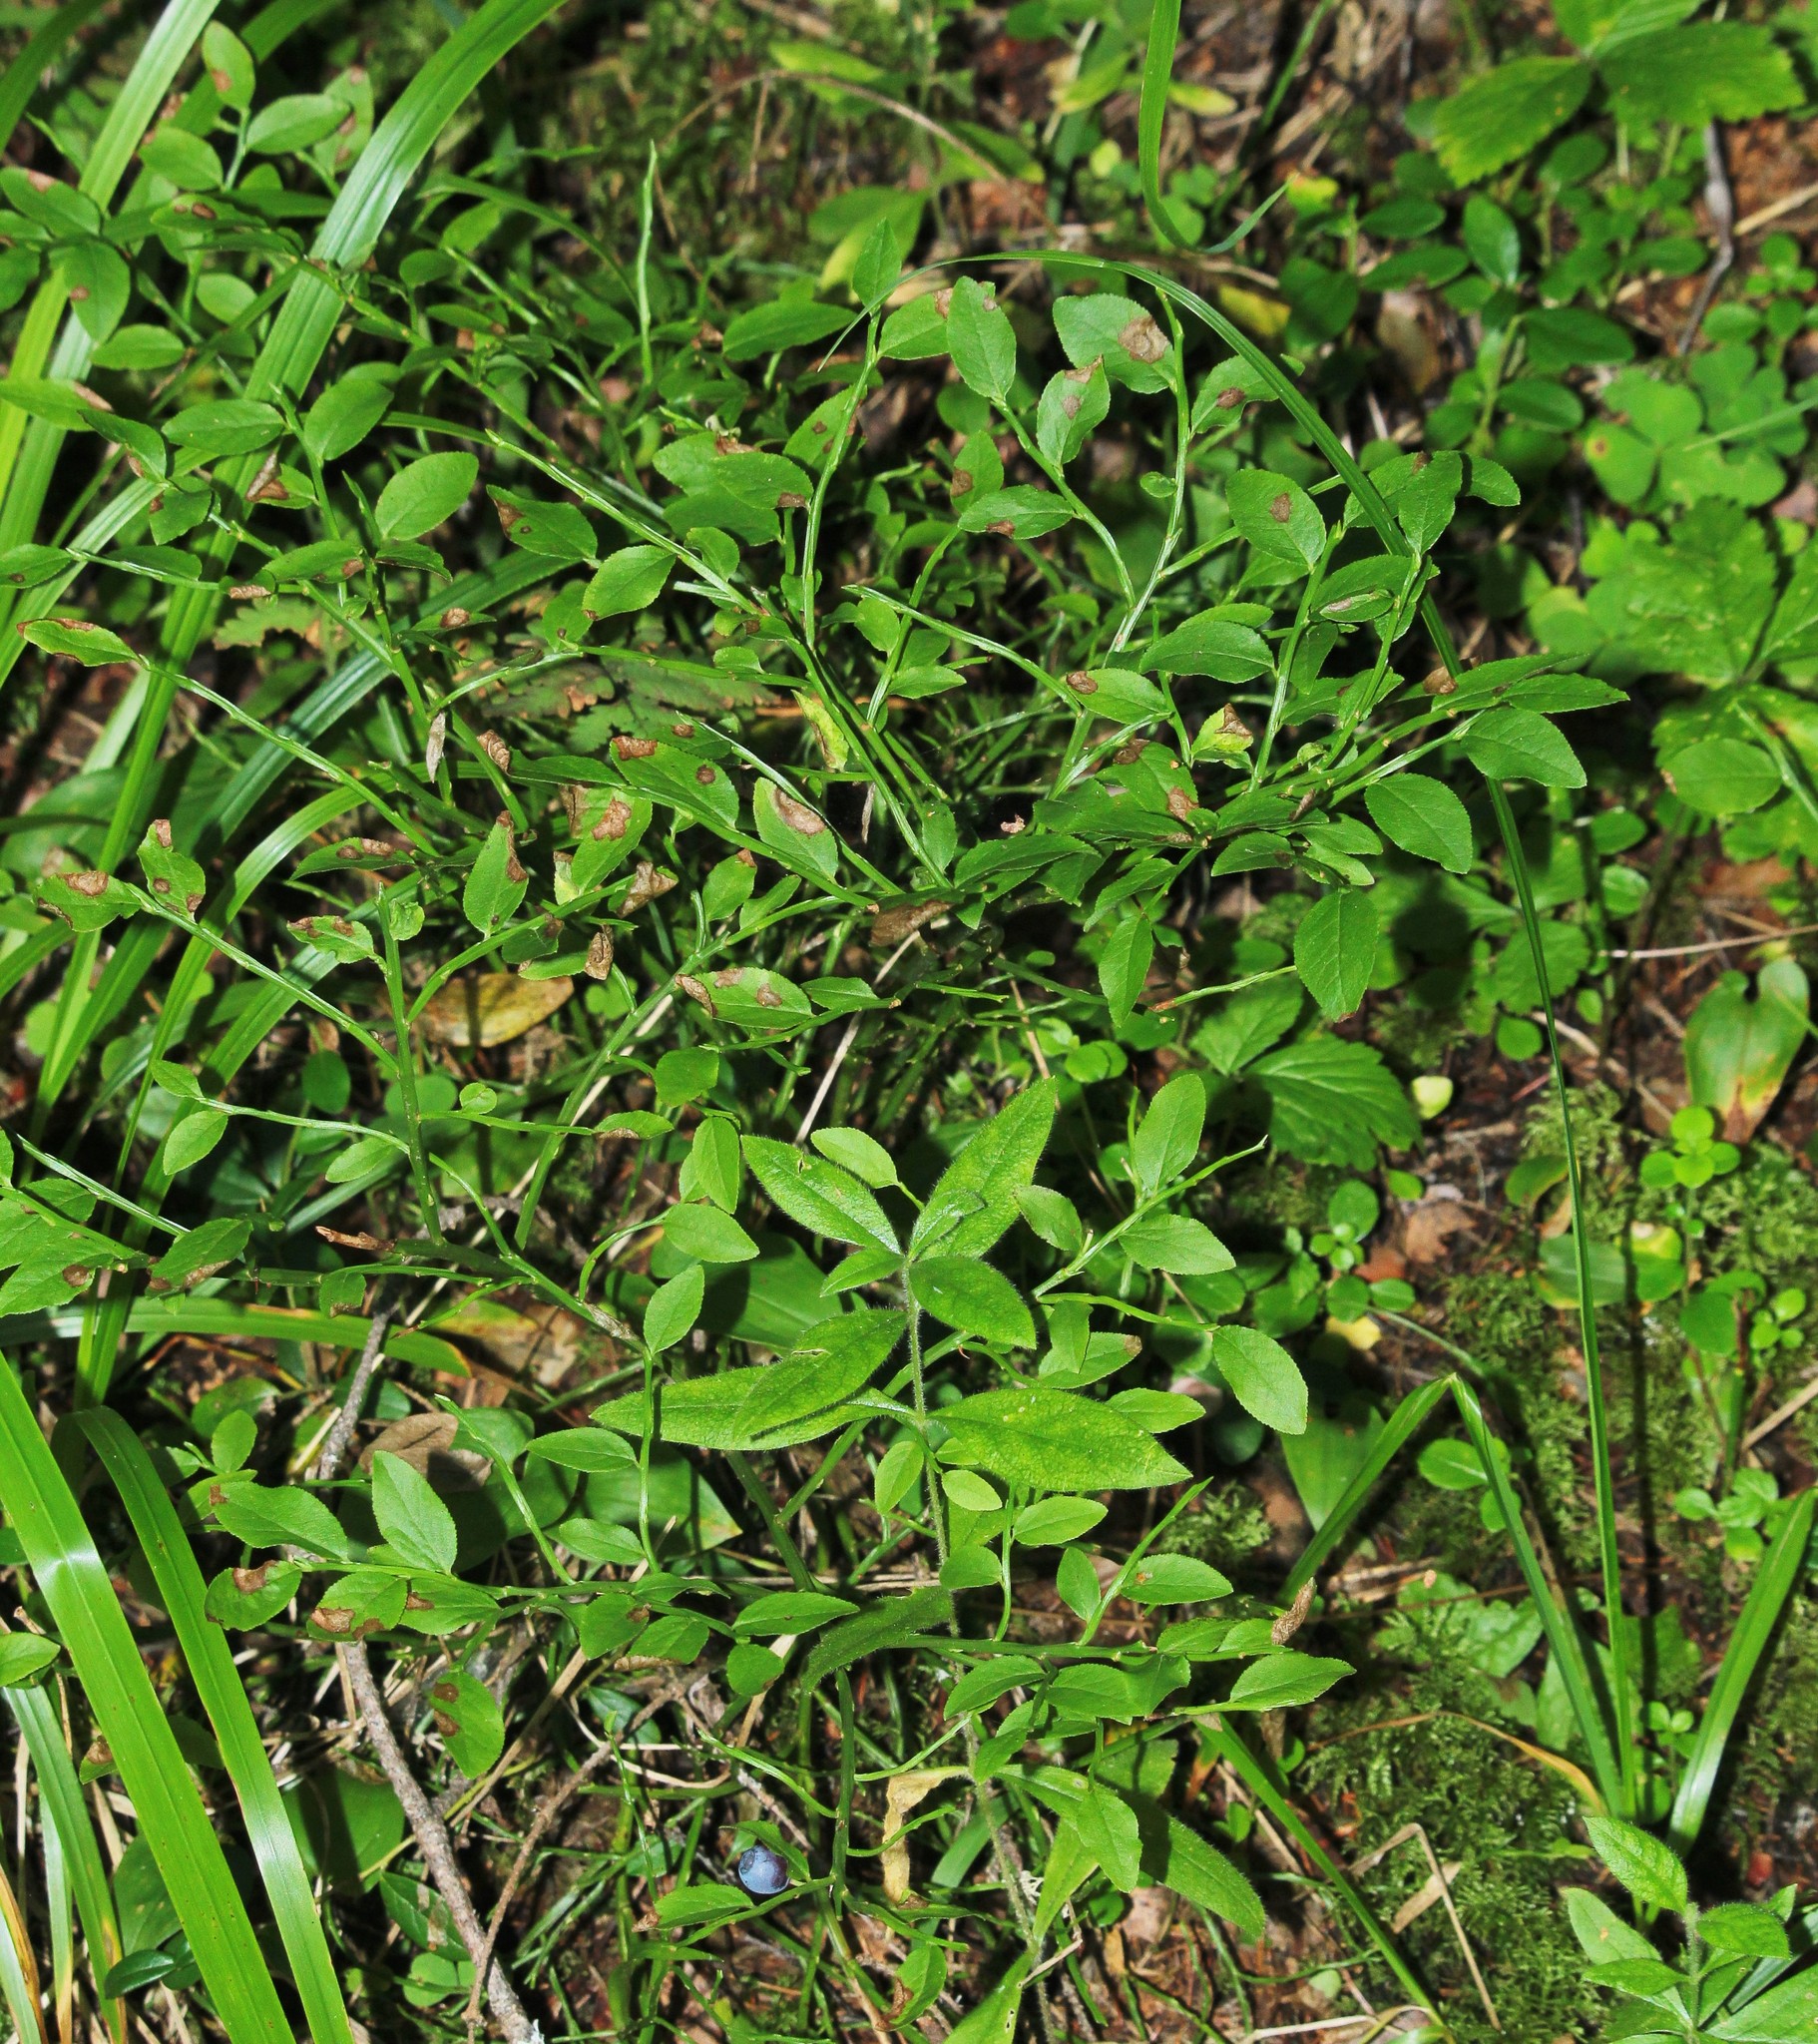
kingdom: Plantae
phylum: Tracheophyta
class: Magnoliopsida
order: Ericales
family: Ericaceae
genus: Vaccinium
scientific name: Vaccinium myrtillus
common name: Bilberry
